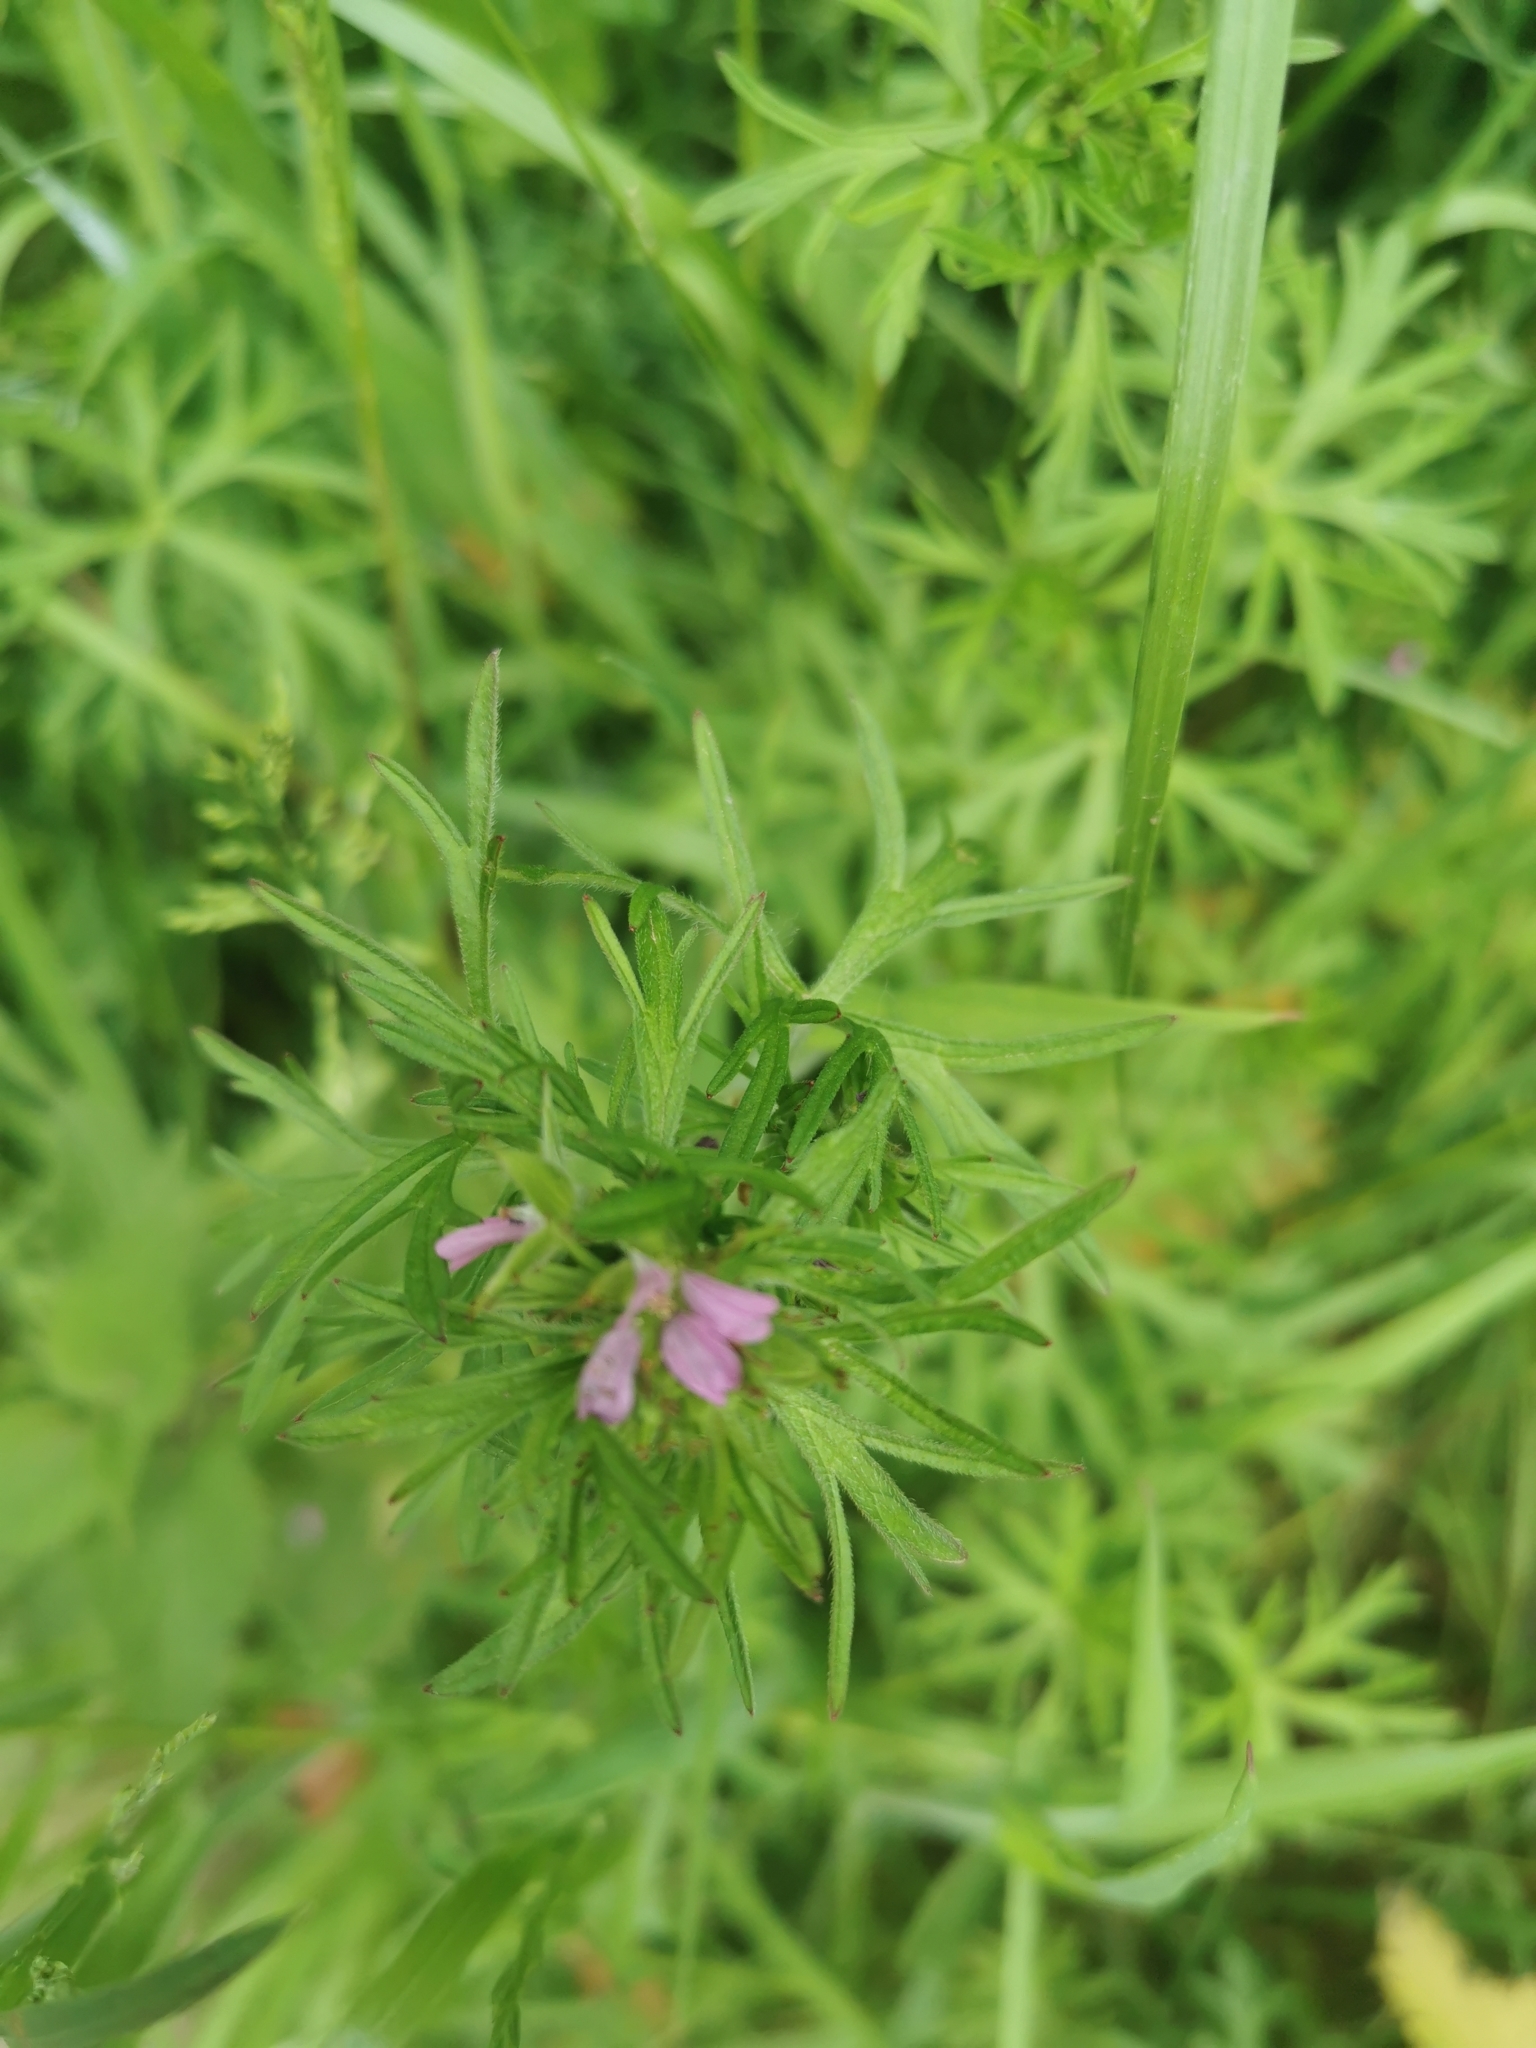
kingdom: Plantae
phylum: Tracheophyta
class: Magnoliopsida
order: Geraniales
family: Geraniaceae
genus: Geranium
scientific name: Geranium dissectum
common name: Cut-leaved crane's-bill
